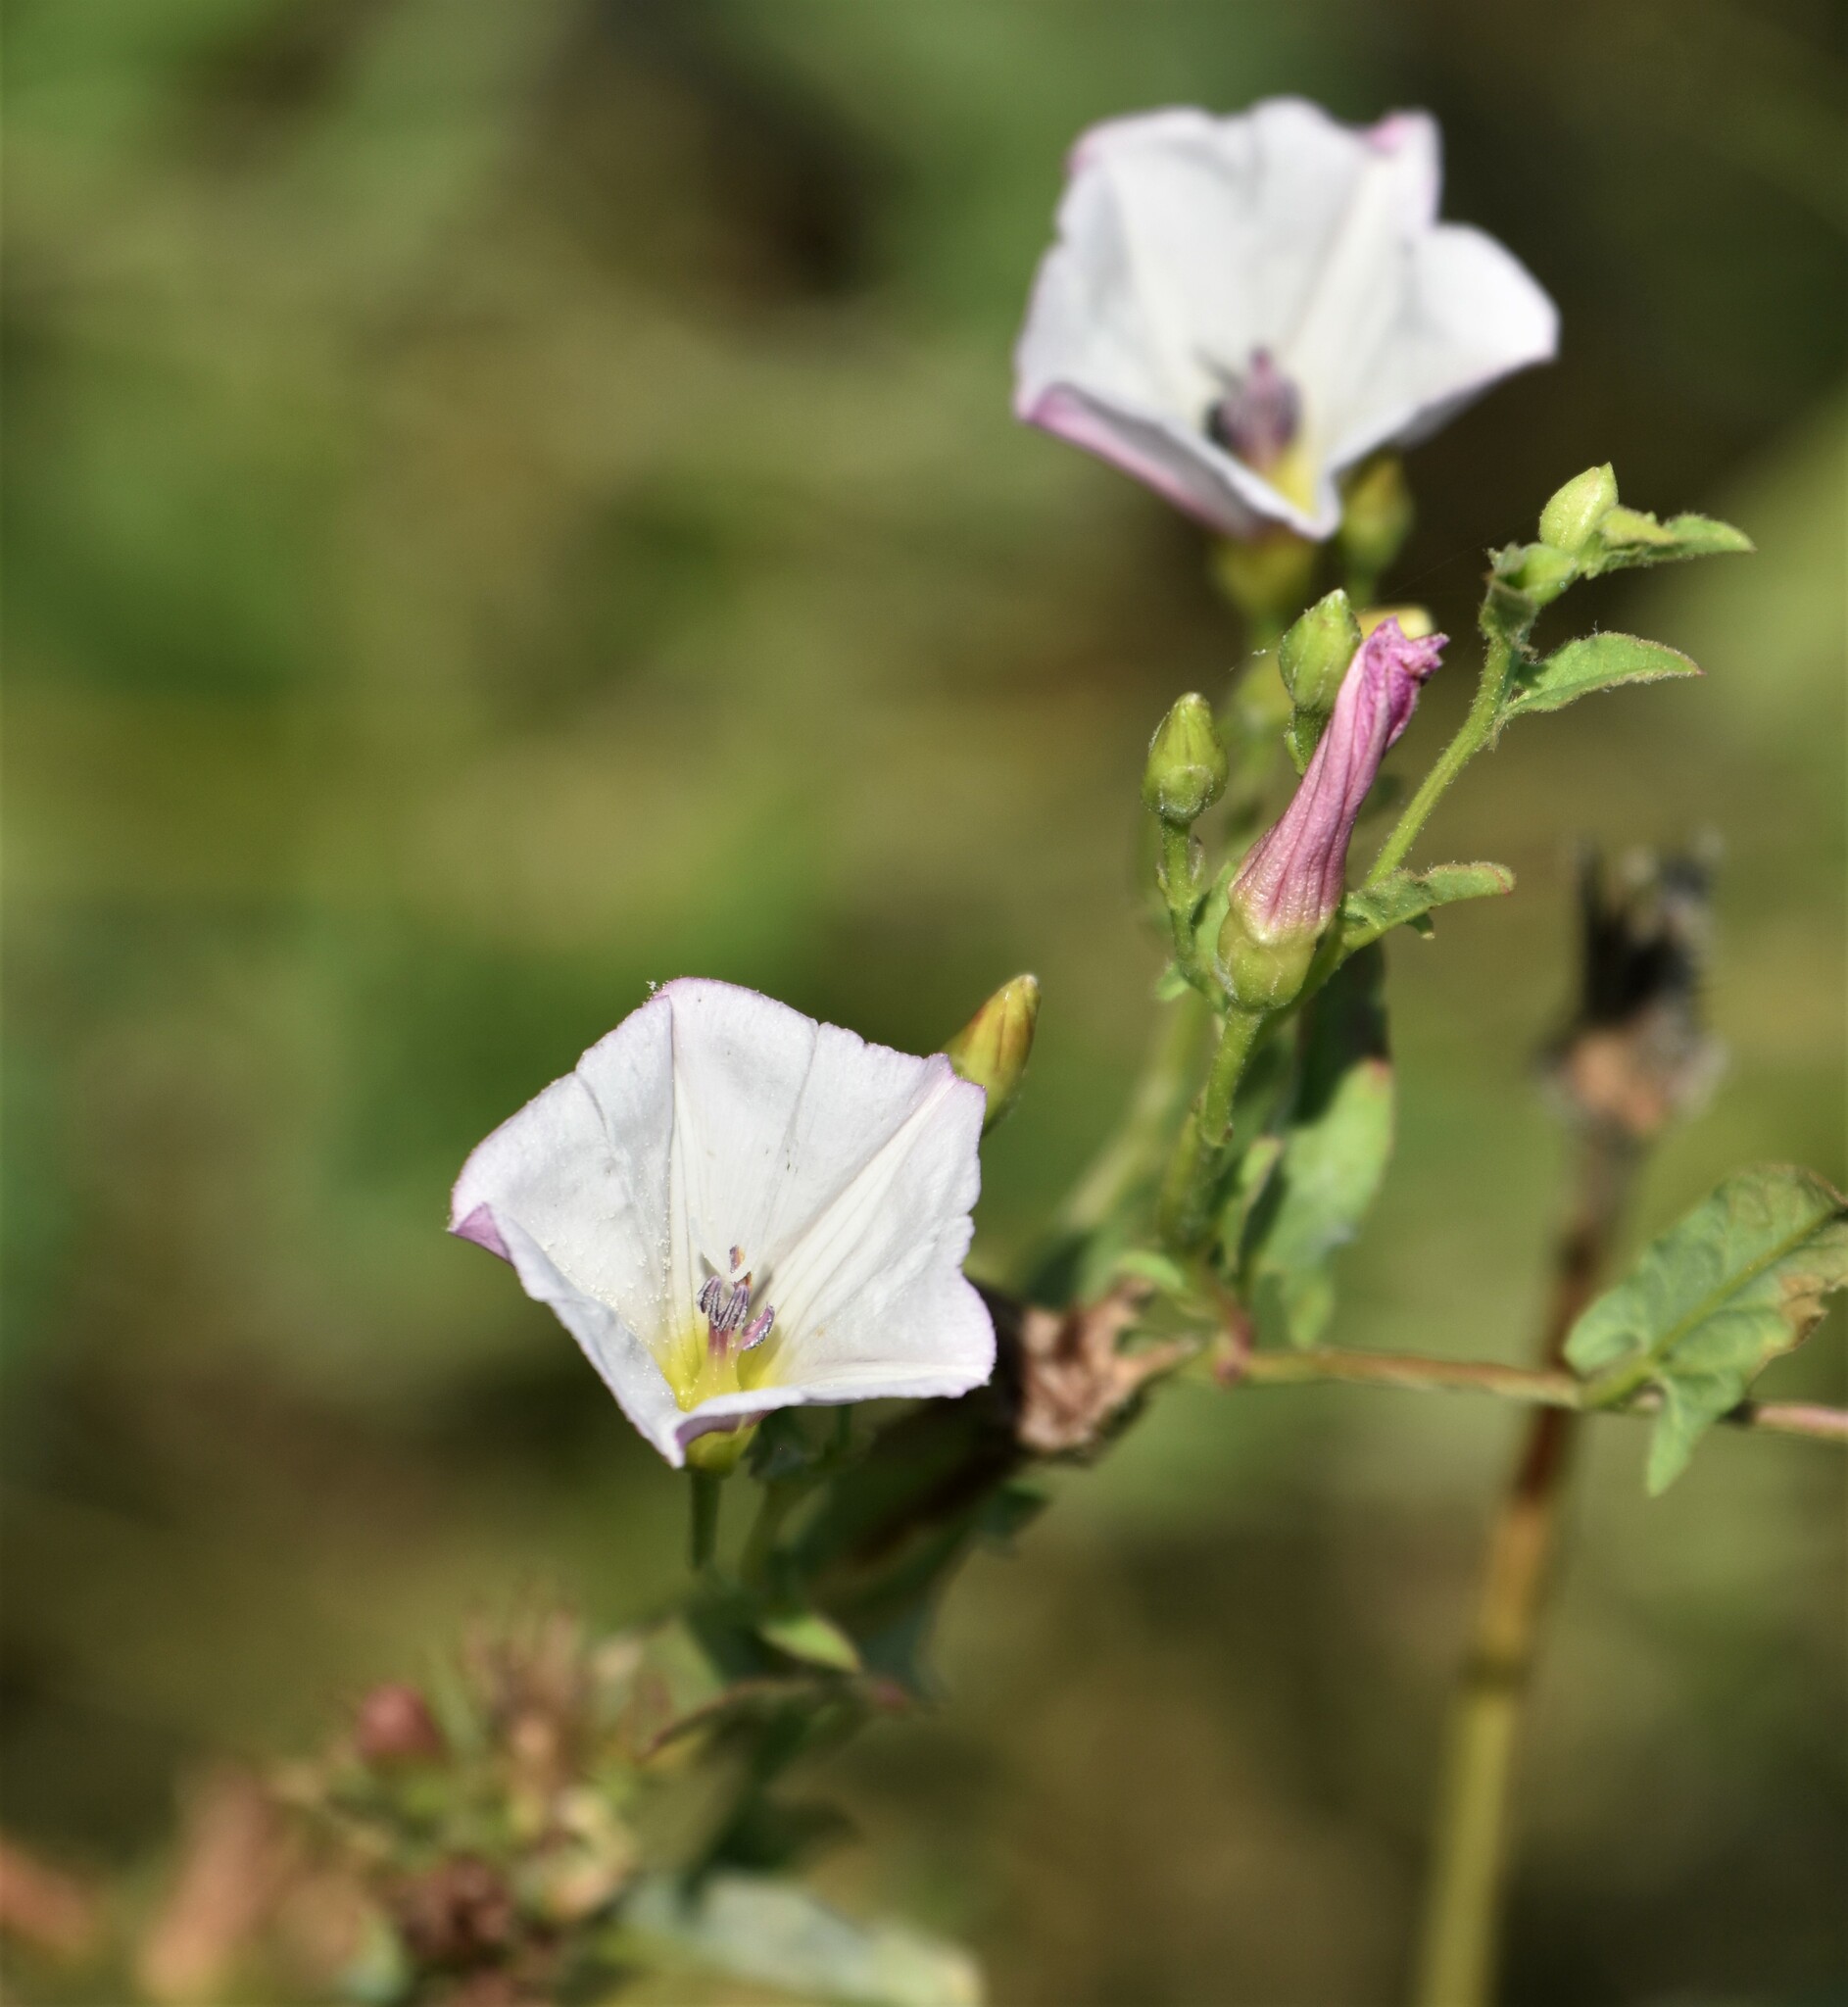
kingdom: Plantae
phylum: Tracheophyta
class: Magnoliopsida
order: Solanales
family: Convolvulaceae
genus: Convolvulus
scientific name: Convolvulus arvensis
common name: Field bindweed
